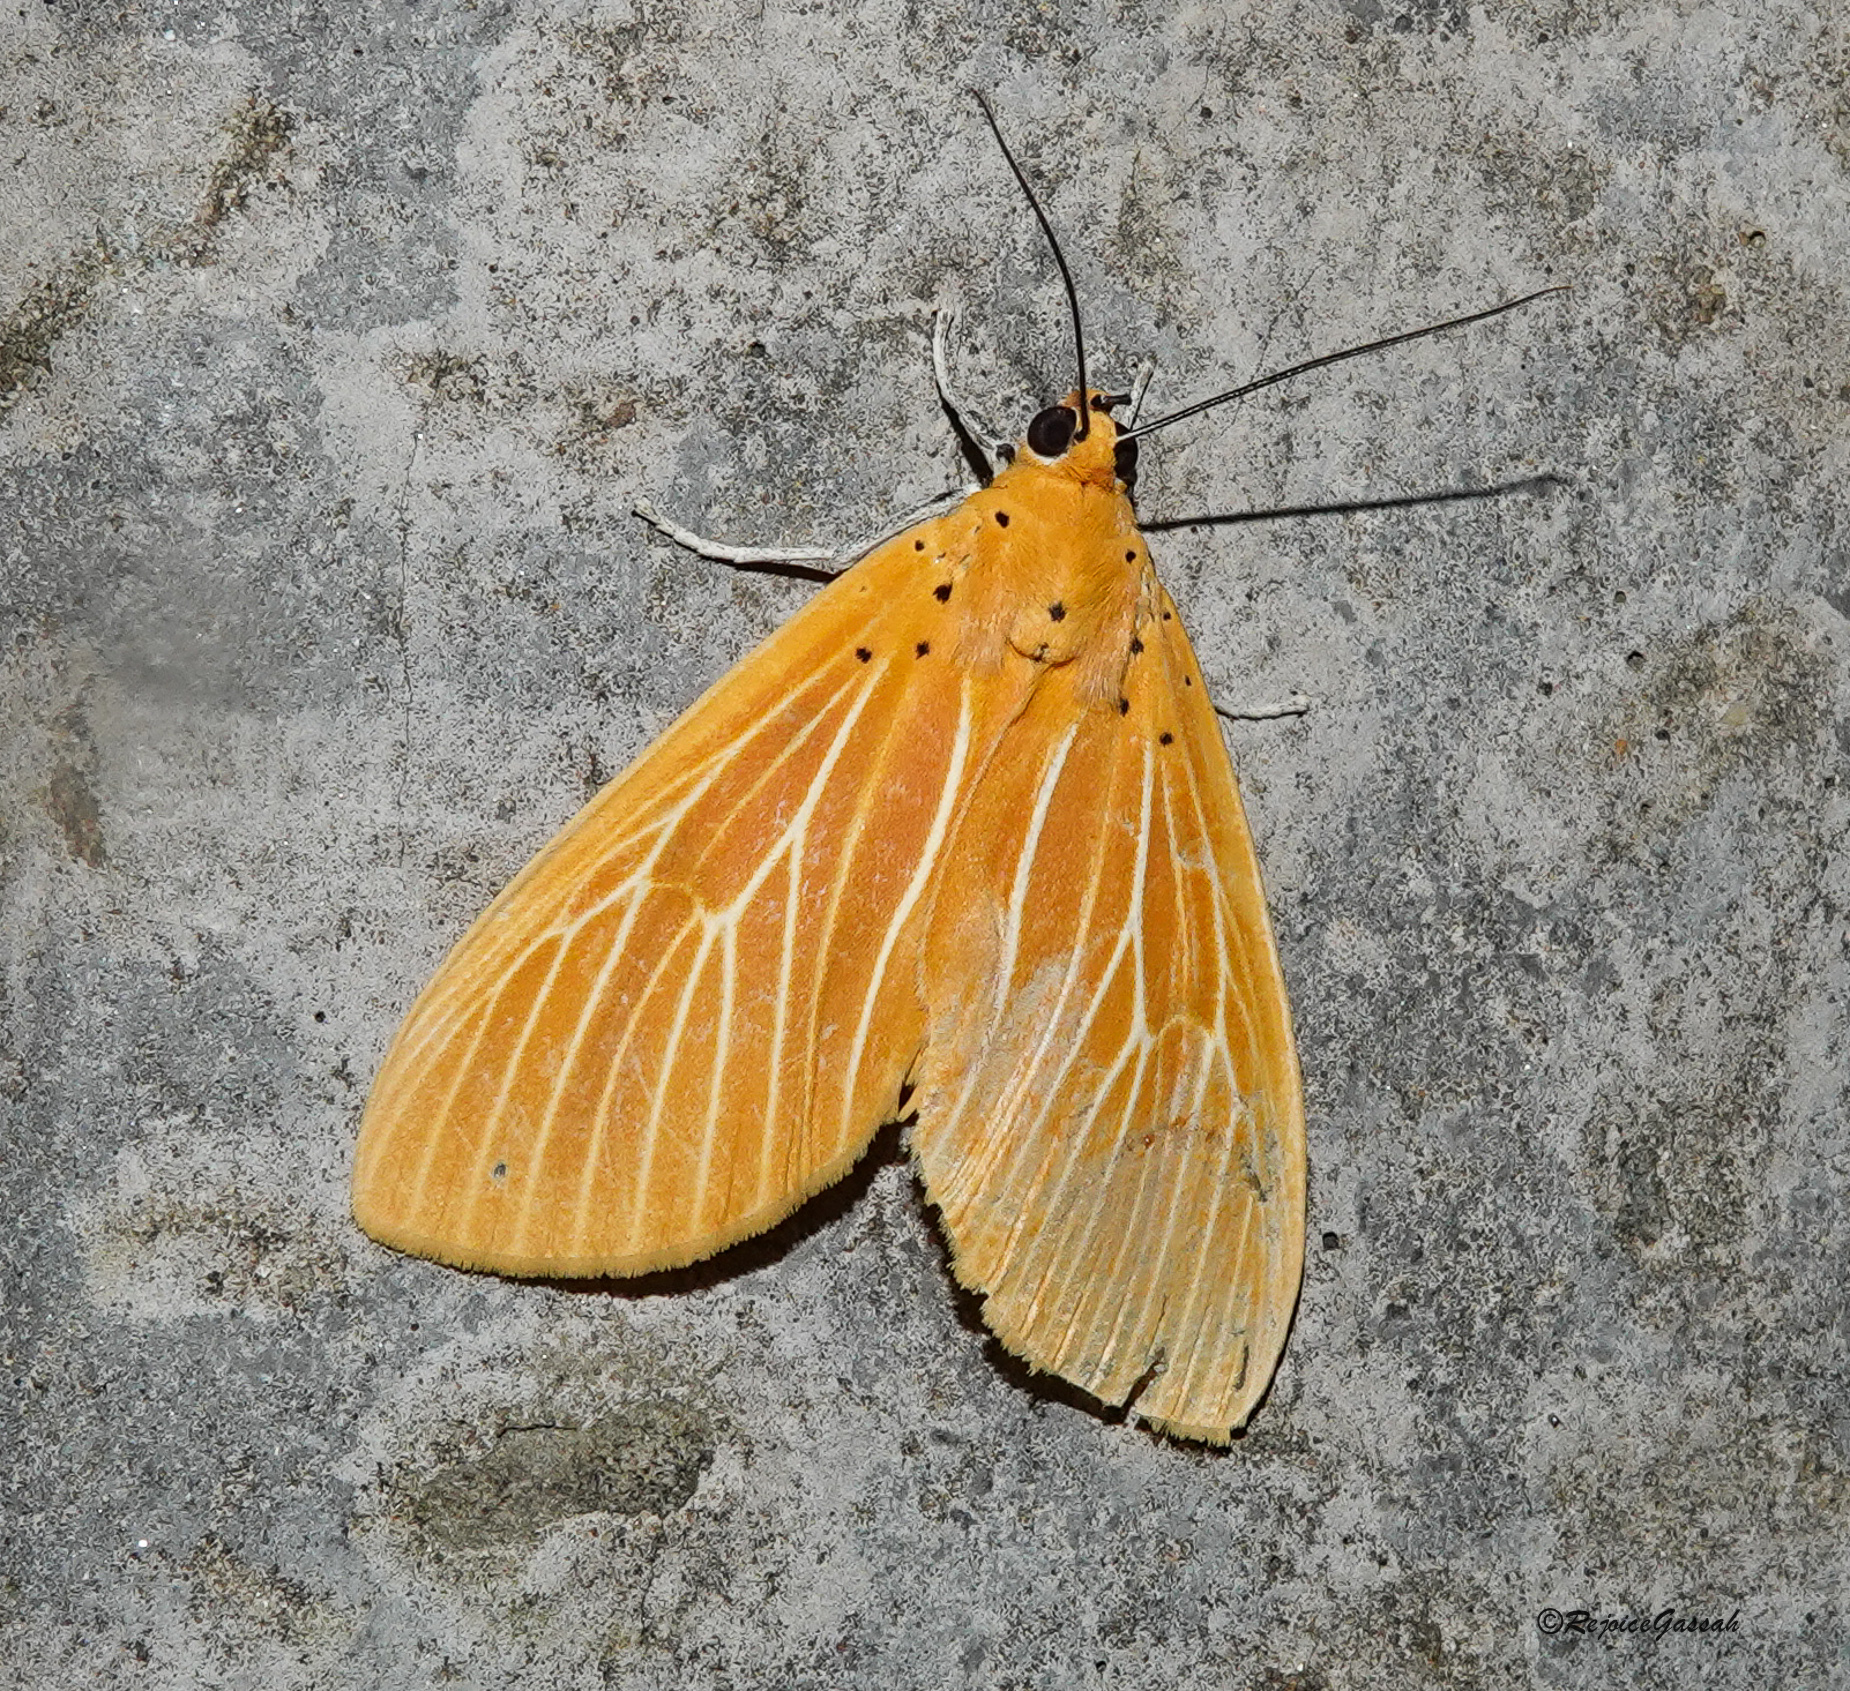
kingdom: Animalia
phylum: Arthropoda
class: Insecta
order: Lepidoptera
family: Erebidae
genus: Asota
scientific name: Asota egens
